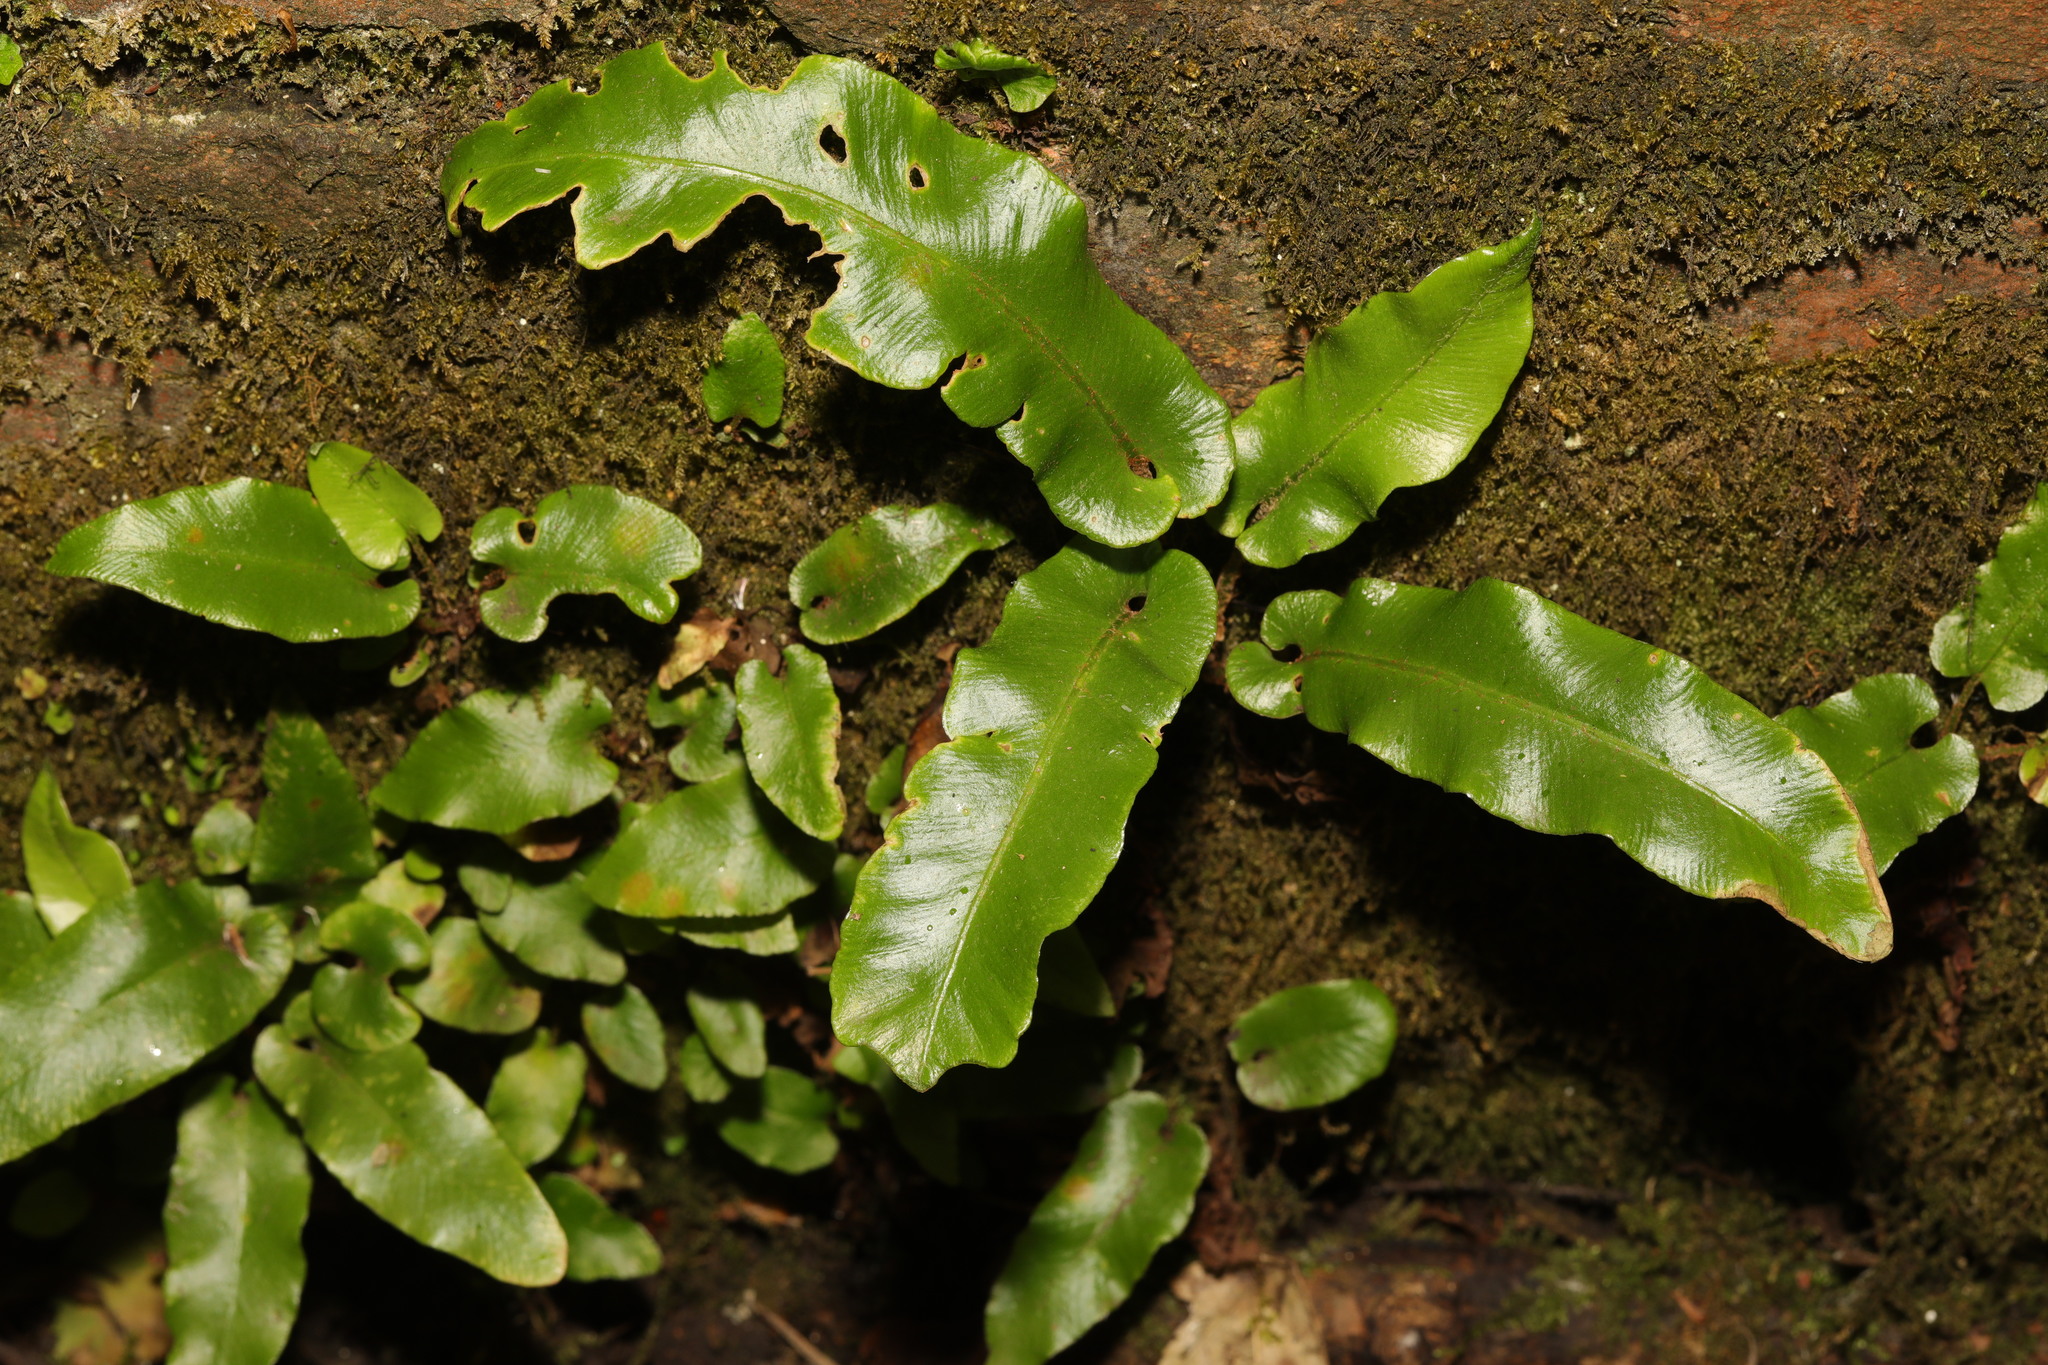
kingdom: Plantae
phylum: Tracheophyta
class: Polypodiopsida
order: Polypodiales
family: Aspleniaceae
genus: Asplenium
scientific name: Asplenium scolopendrium
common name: Hart's-tongue fern
